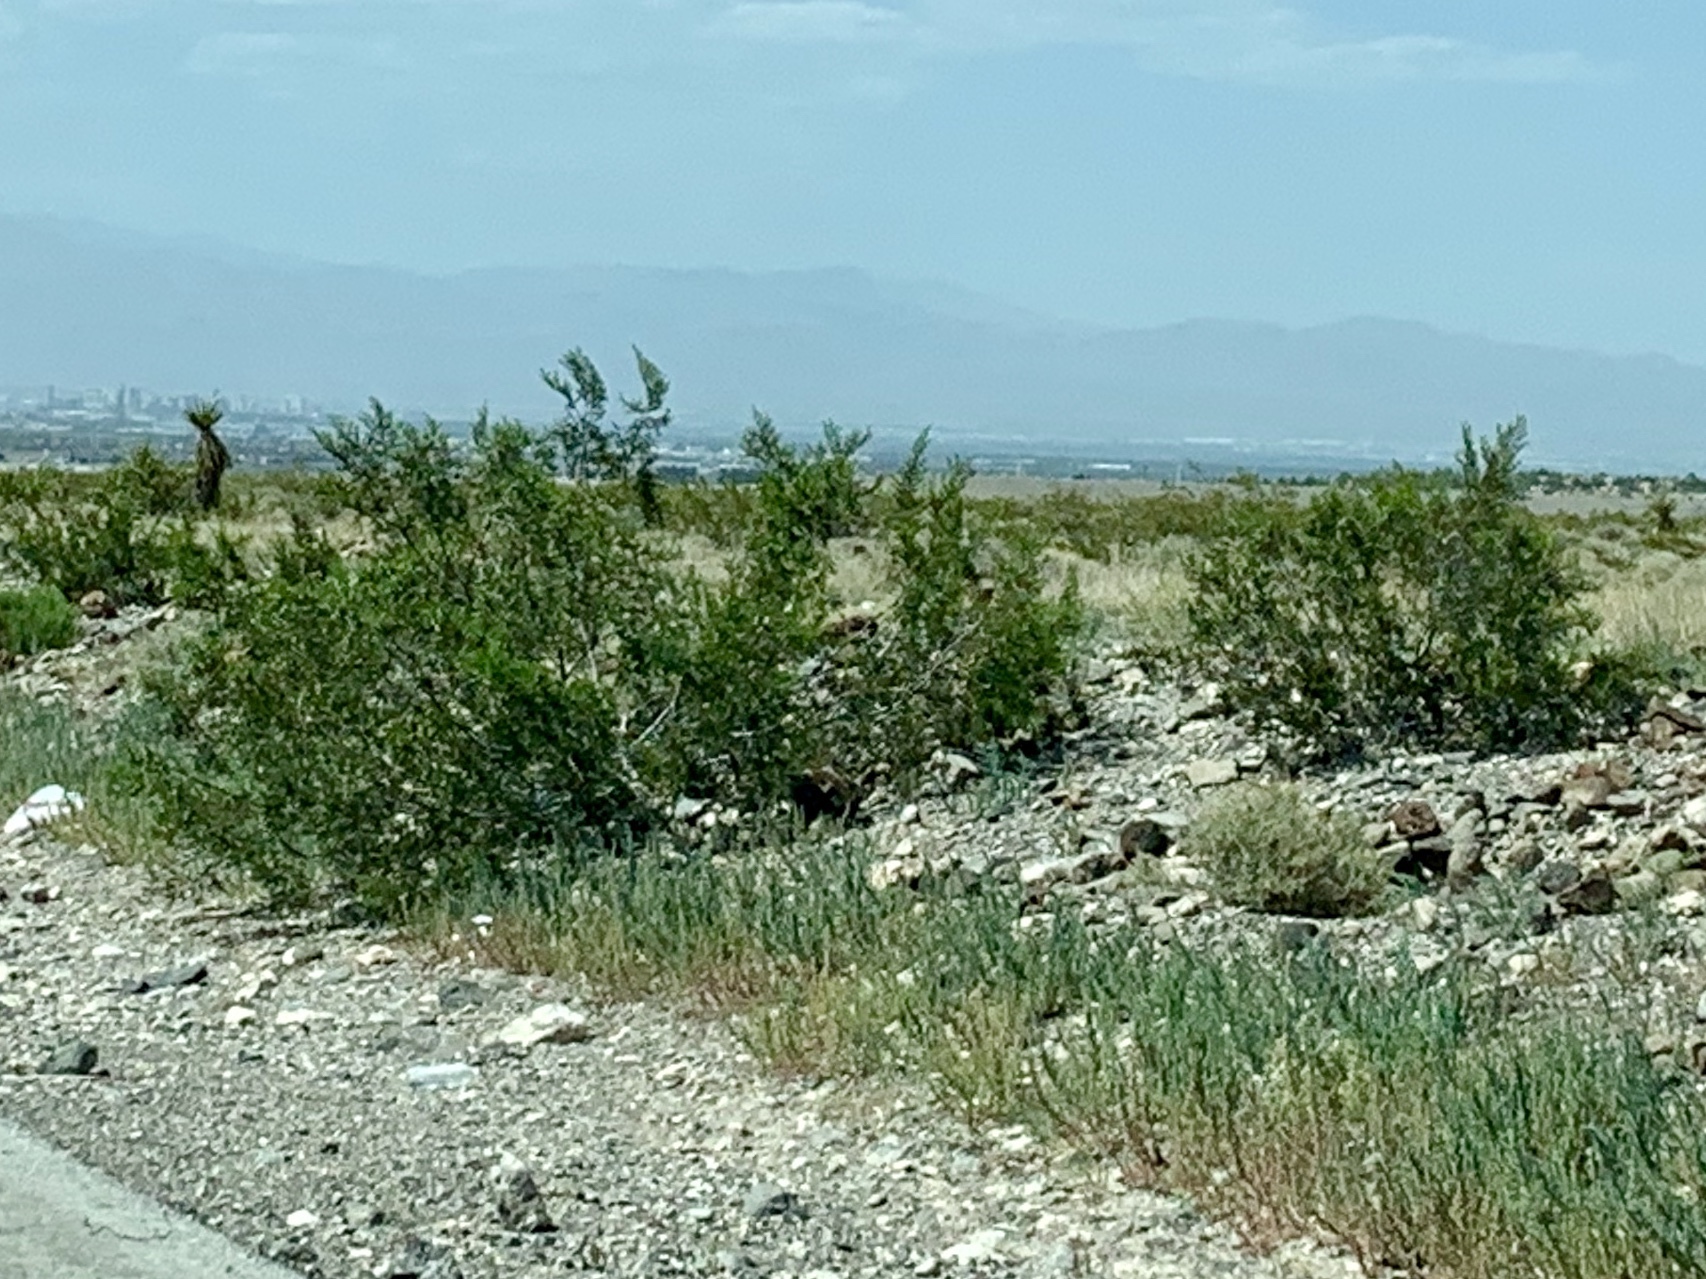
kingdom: Plantae
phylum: Tracheophyta
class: Magnoliopsida
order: Zygophyllales
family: Zygophyllaceae
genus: Larrea
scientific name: Larrea tridentata
